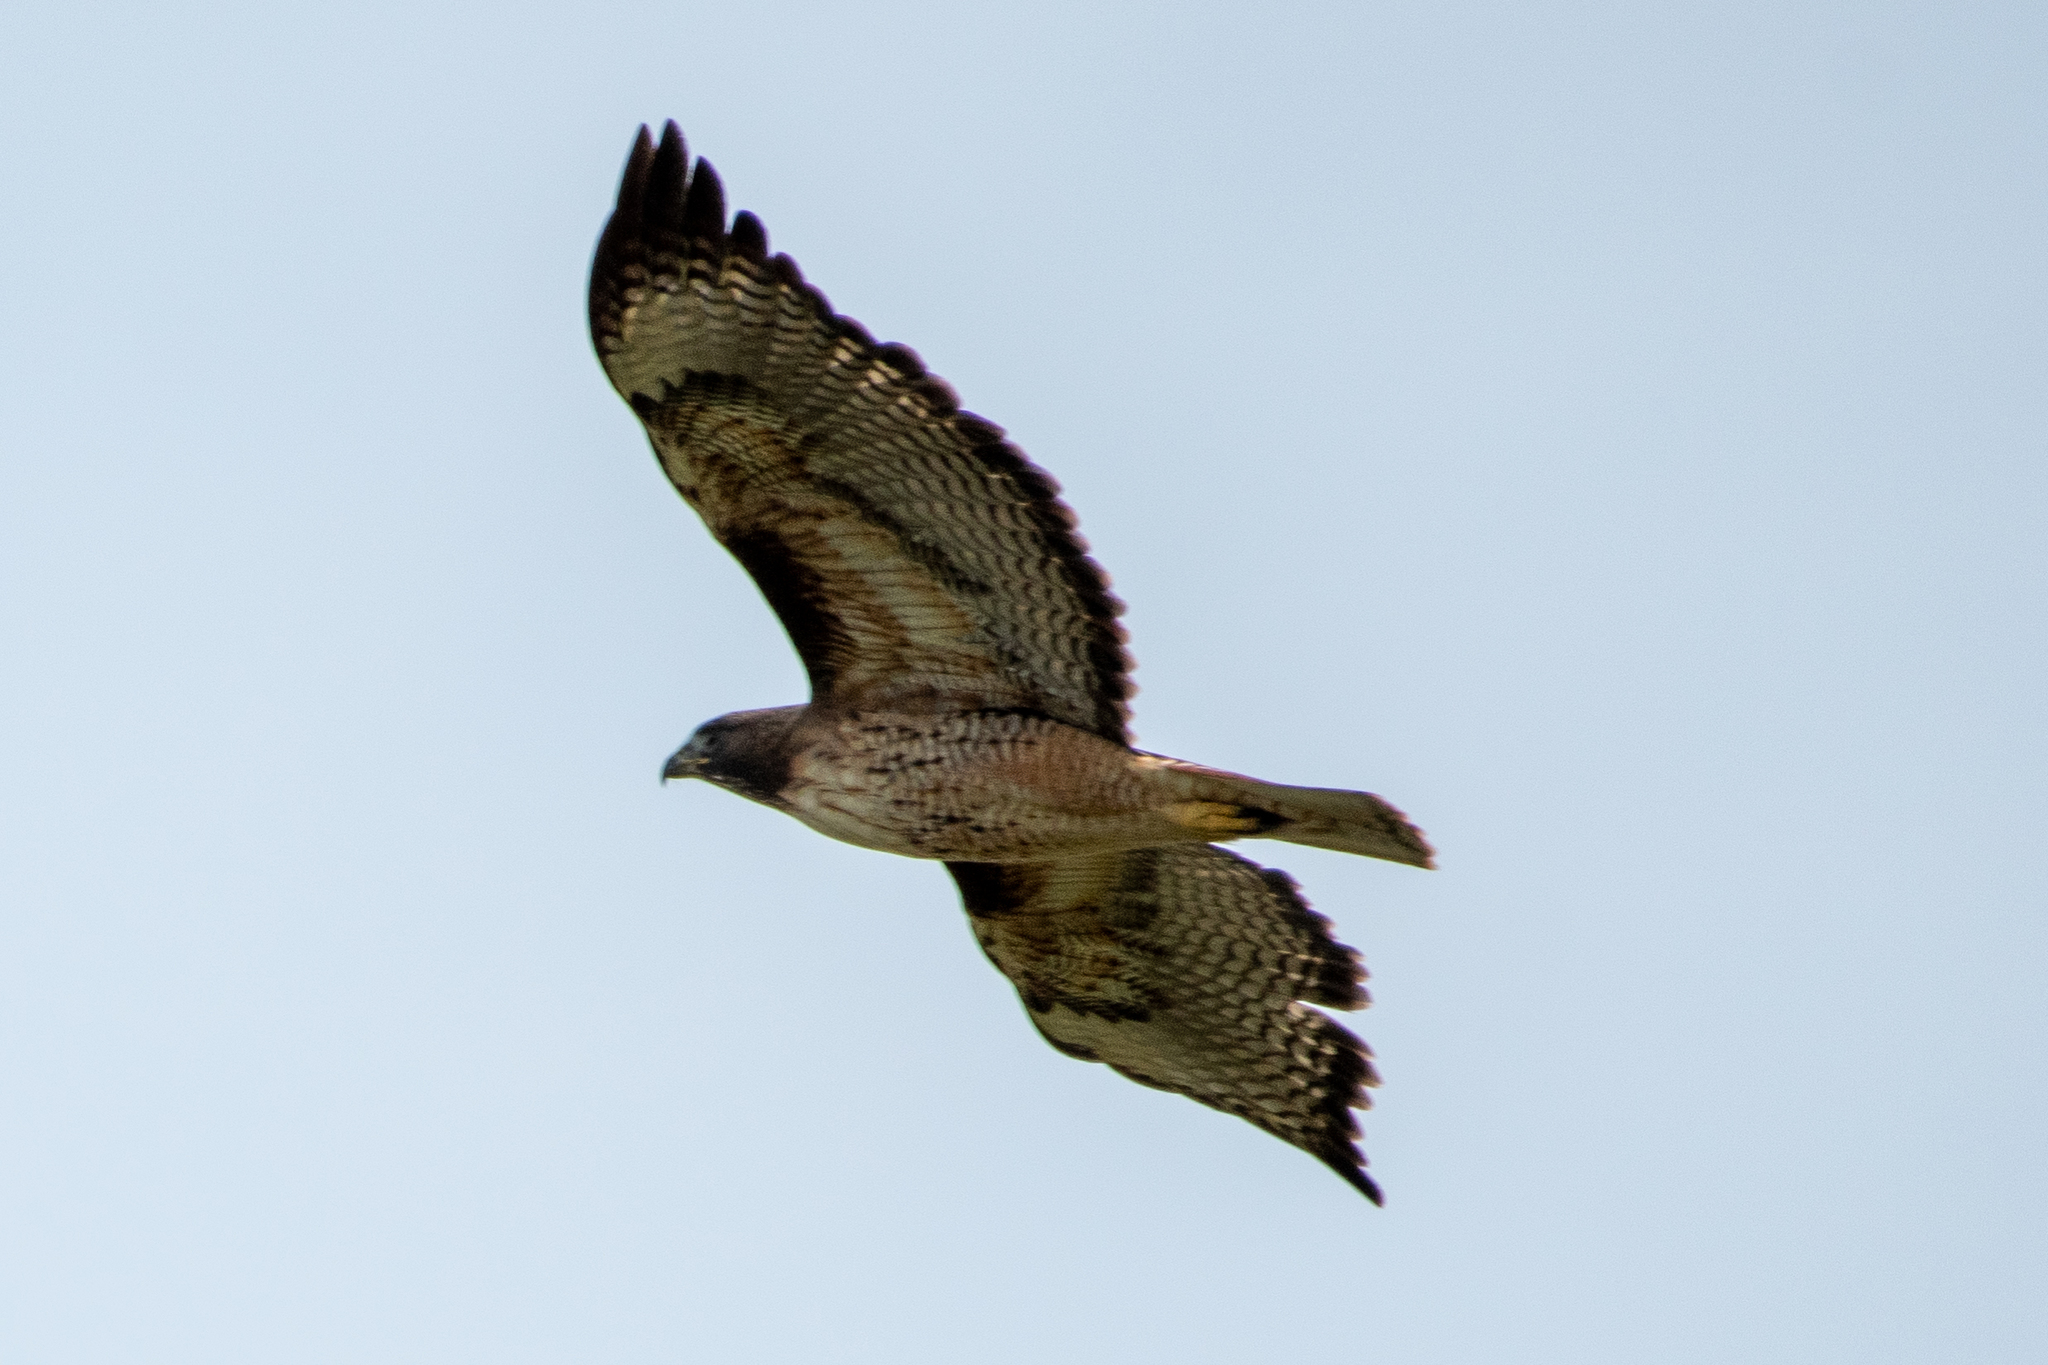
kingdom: Animalia
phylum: Chordata
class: Aves
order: Accipitriformes
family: Accipitridae
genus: Buteo
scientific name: Buteo jamaicensis
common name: Red-tailed hawk
